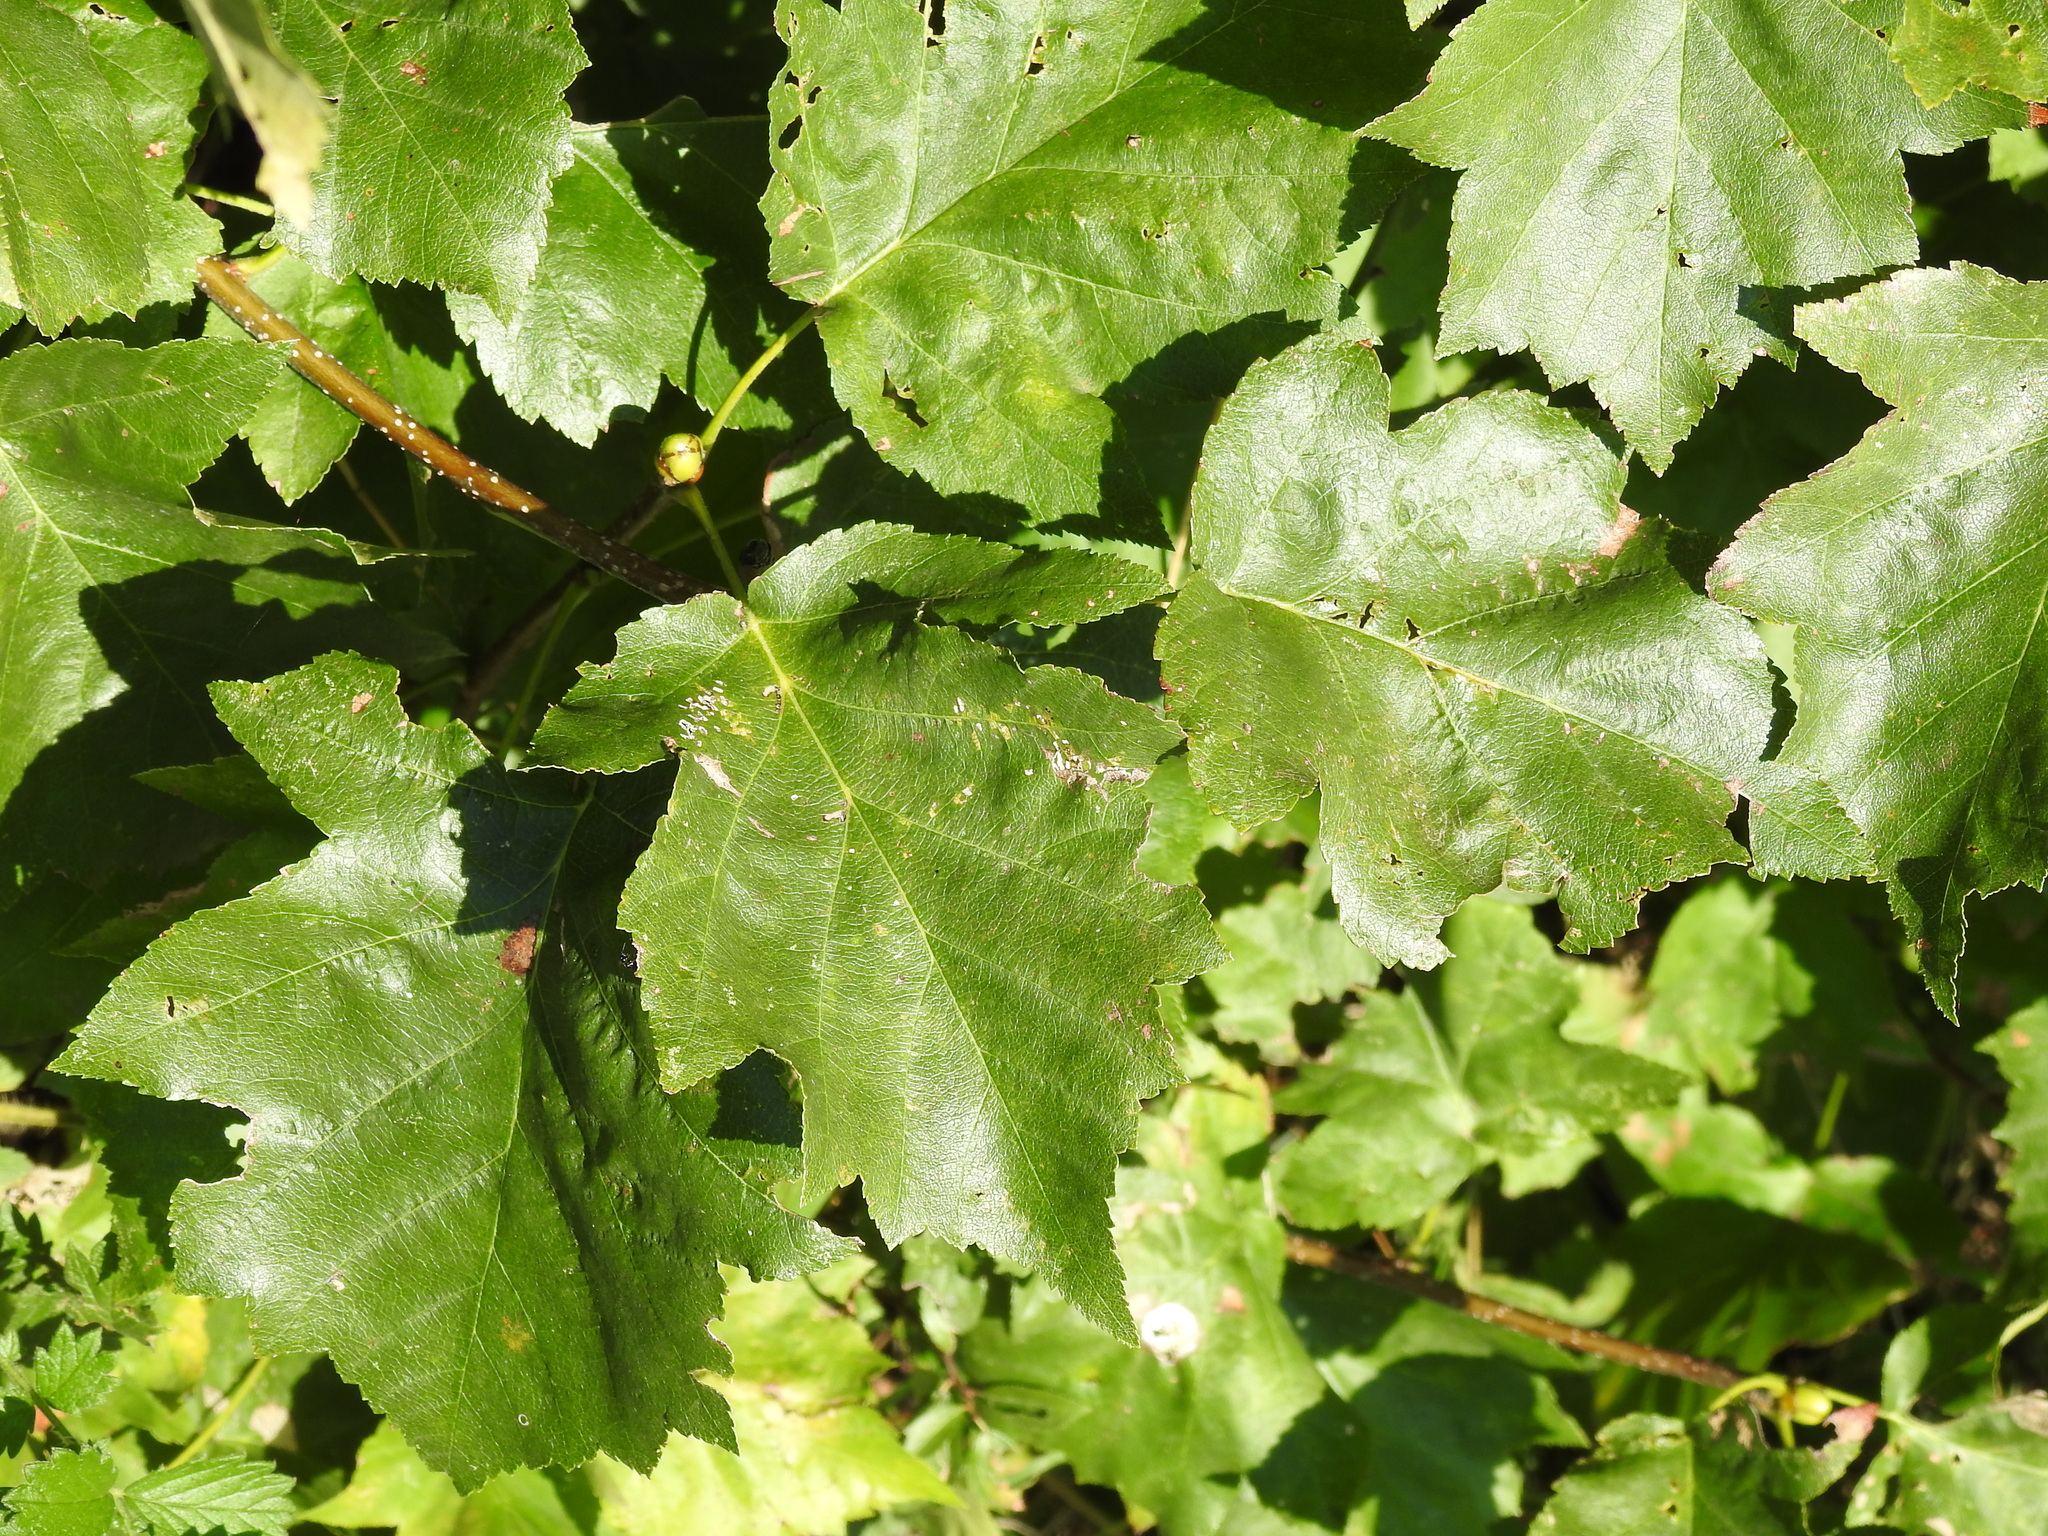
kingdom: Plantae
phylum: Tracheophyta
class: Magnoliopsida
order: Rosales
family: Rosaceae
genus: Torminalis
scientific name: Torminalis glaberrima
